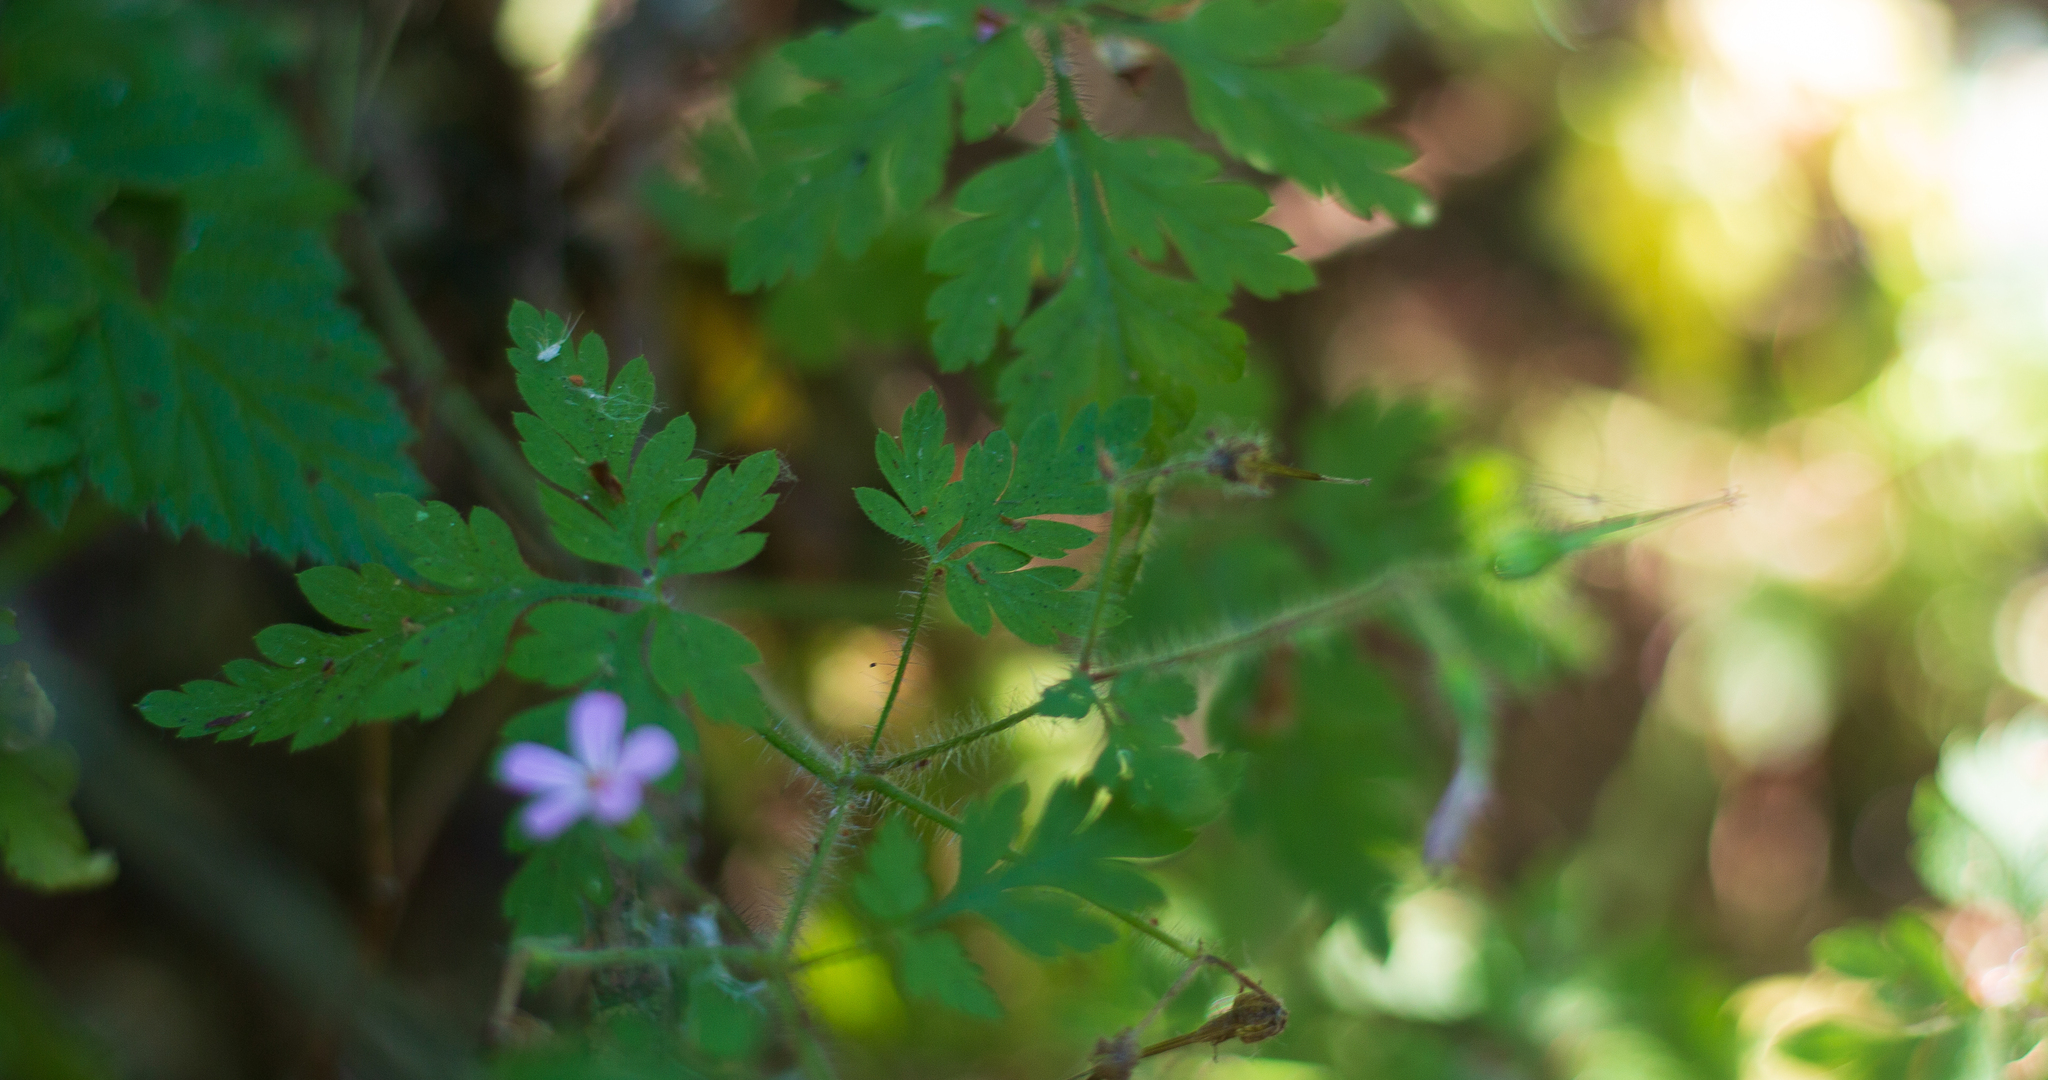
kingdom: Plantae
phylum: Tracheophyta
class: Magnoliopsida
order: Geraniales
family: Geraniaceae
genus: Geranium
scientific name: Geranium robertianum
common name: Herb-robert
